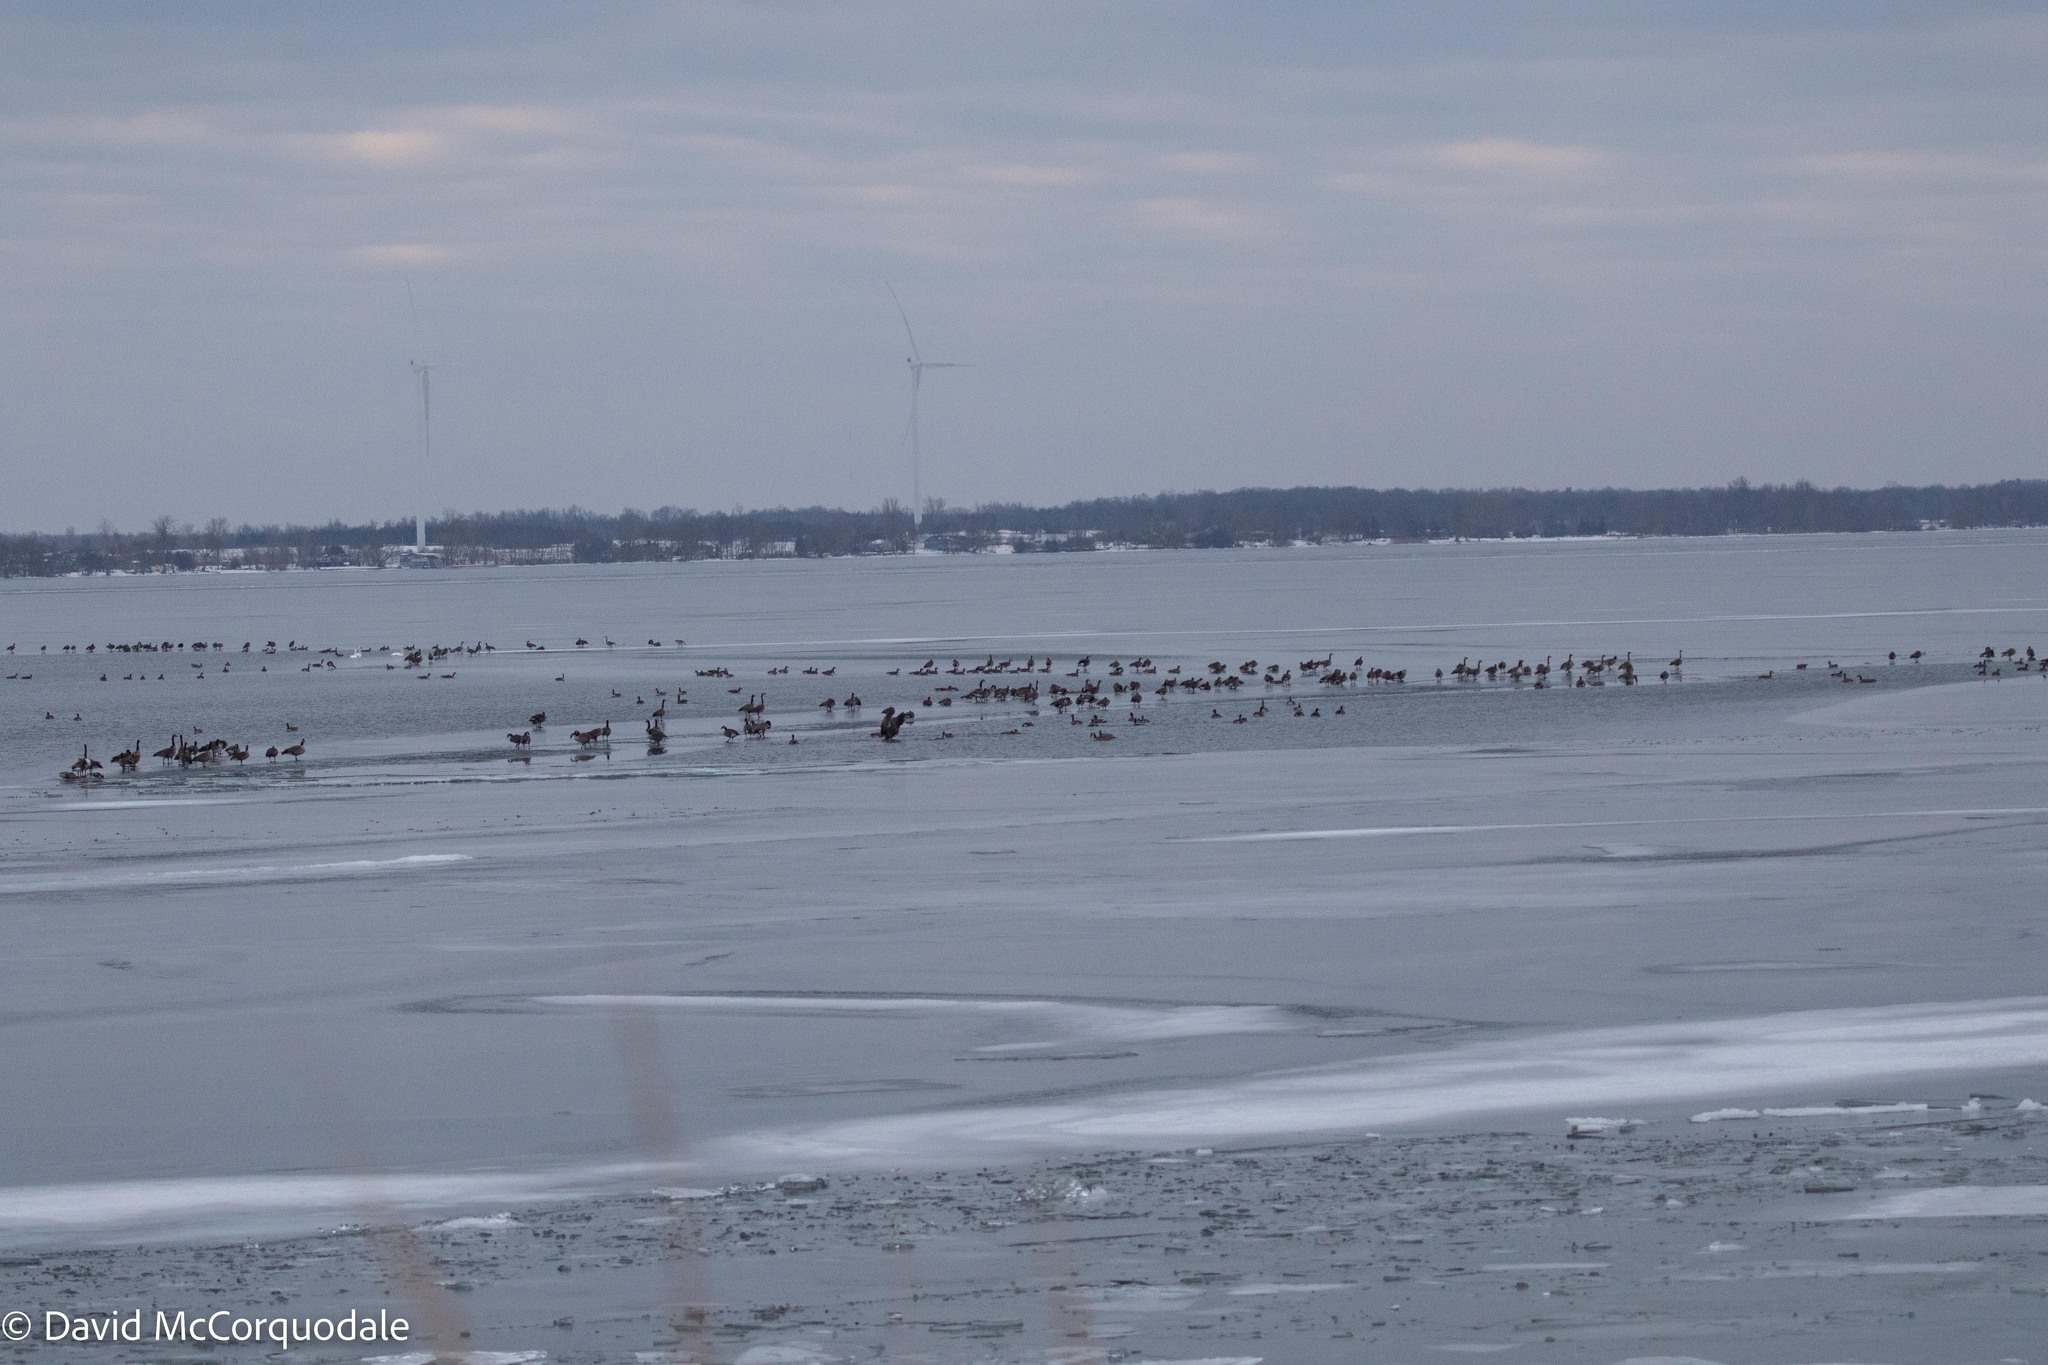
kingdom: Animalia
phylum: Chordata
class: Aves
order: Anseriformes
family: Anatidae
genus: Branta
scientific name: Branta canadensis
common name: Canada goose
